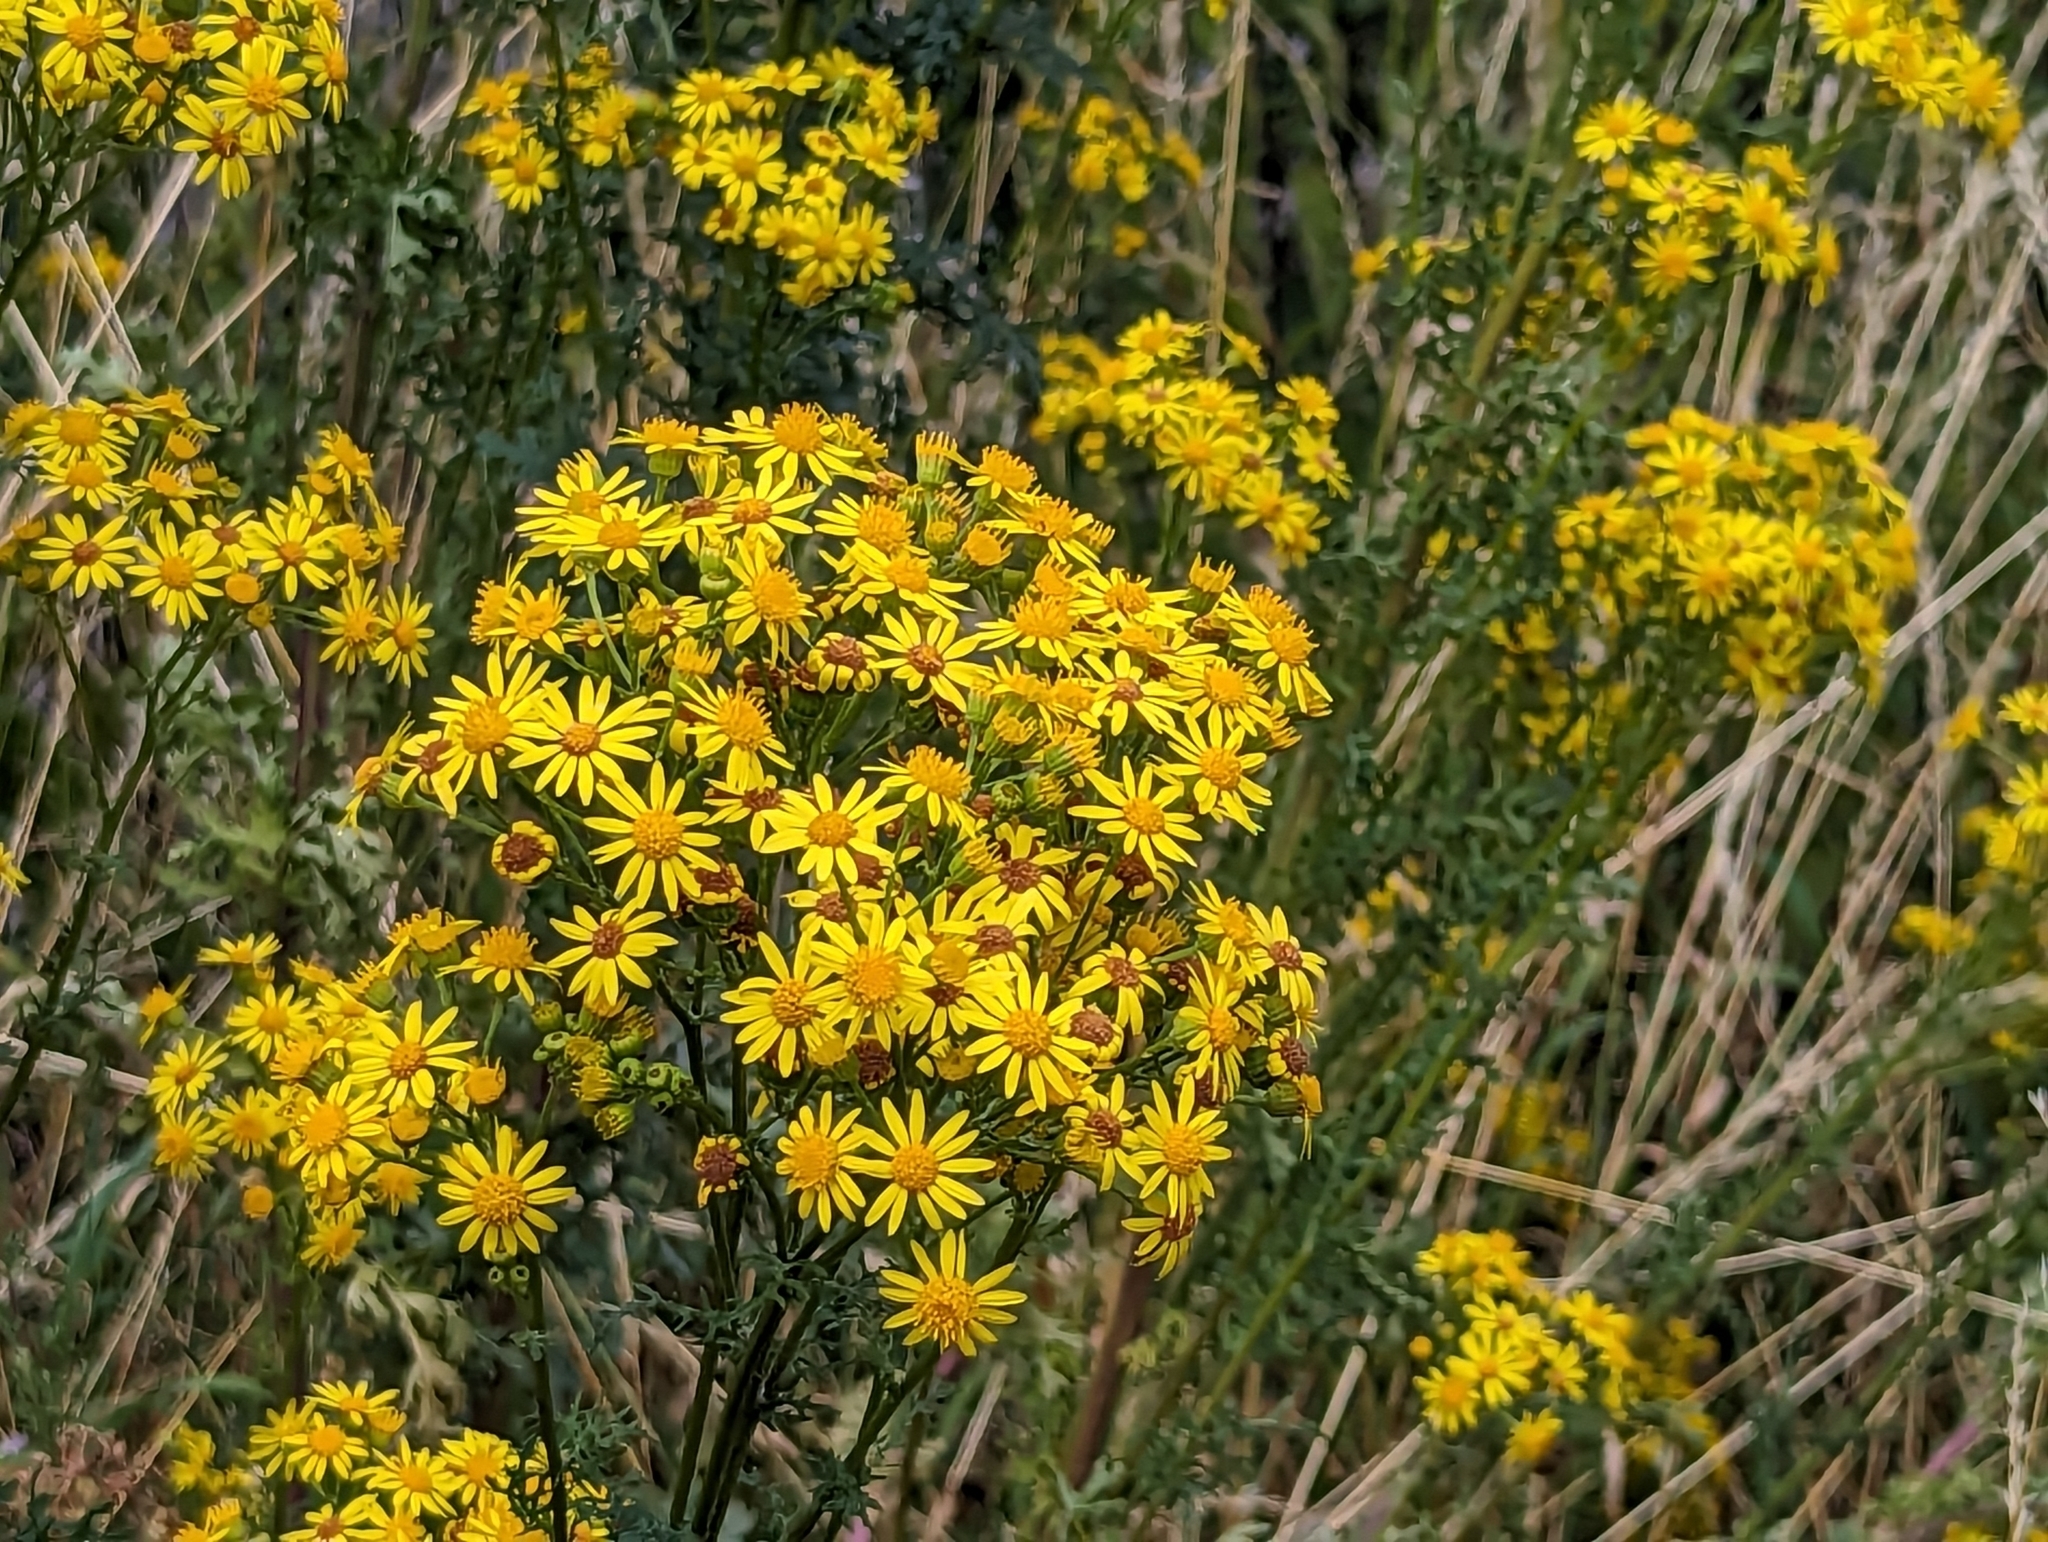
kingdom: Plantae
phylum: Tracheophyta
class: Magnoliopsida
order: Asterales
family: Asteraceae
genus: Jacobaea
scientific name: Jacobaea vulgaris
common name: Stinking willie
